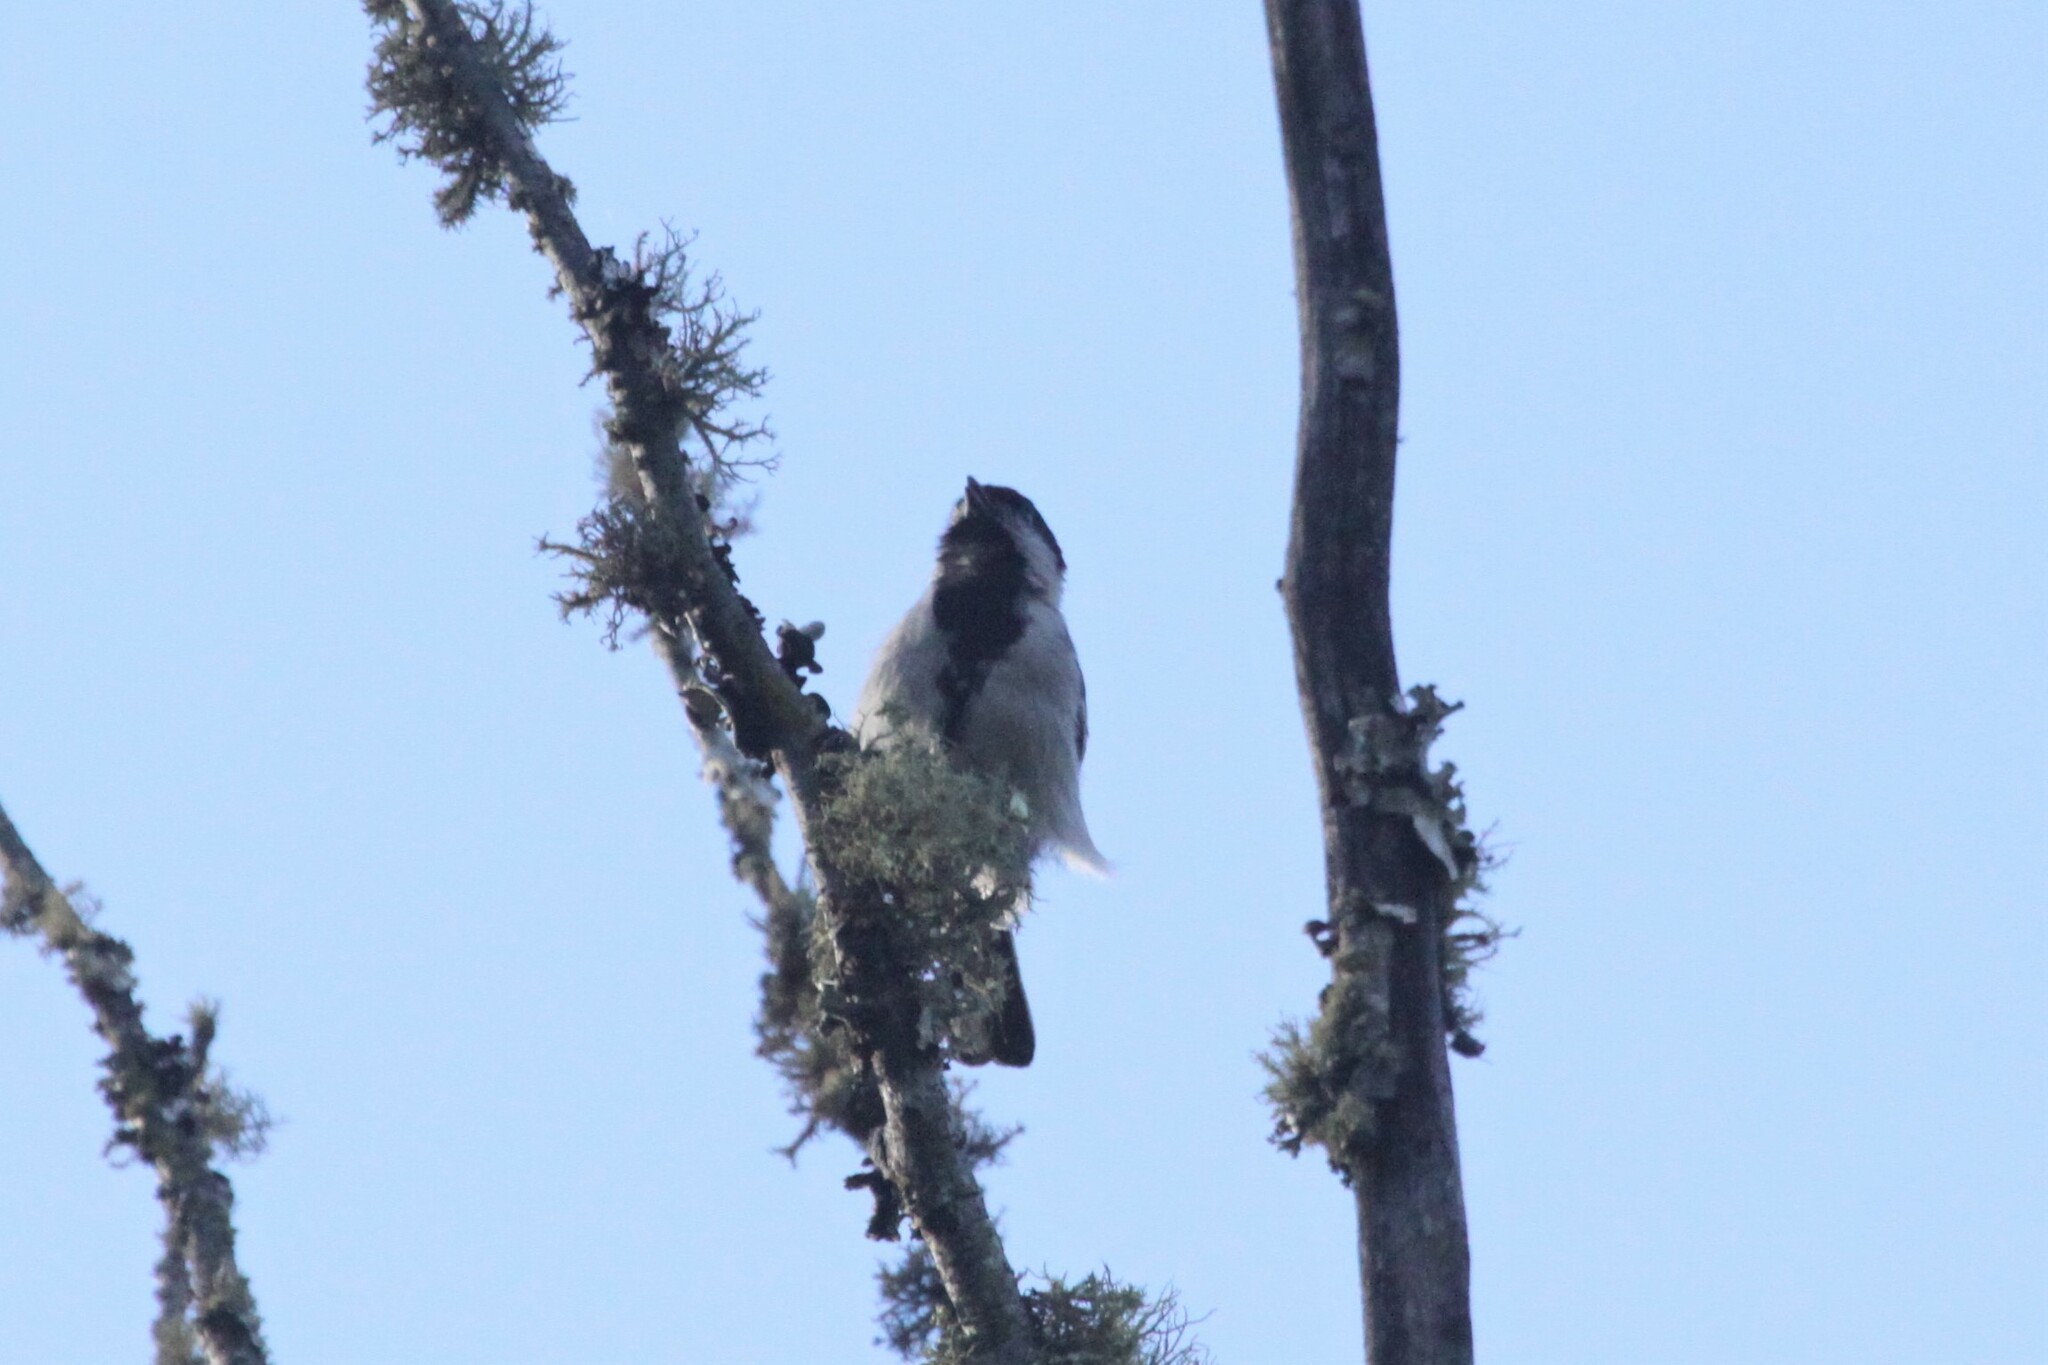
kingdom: Animalia
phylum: Chordata
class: Aves
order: Passeriformes
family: Paridae
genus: Parus
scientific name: Parus griseiventris
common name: Miombo tit
